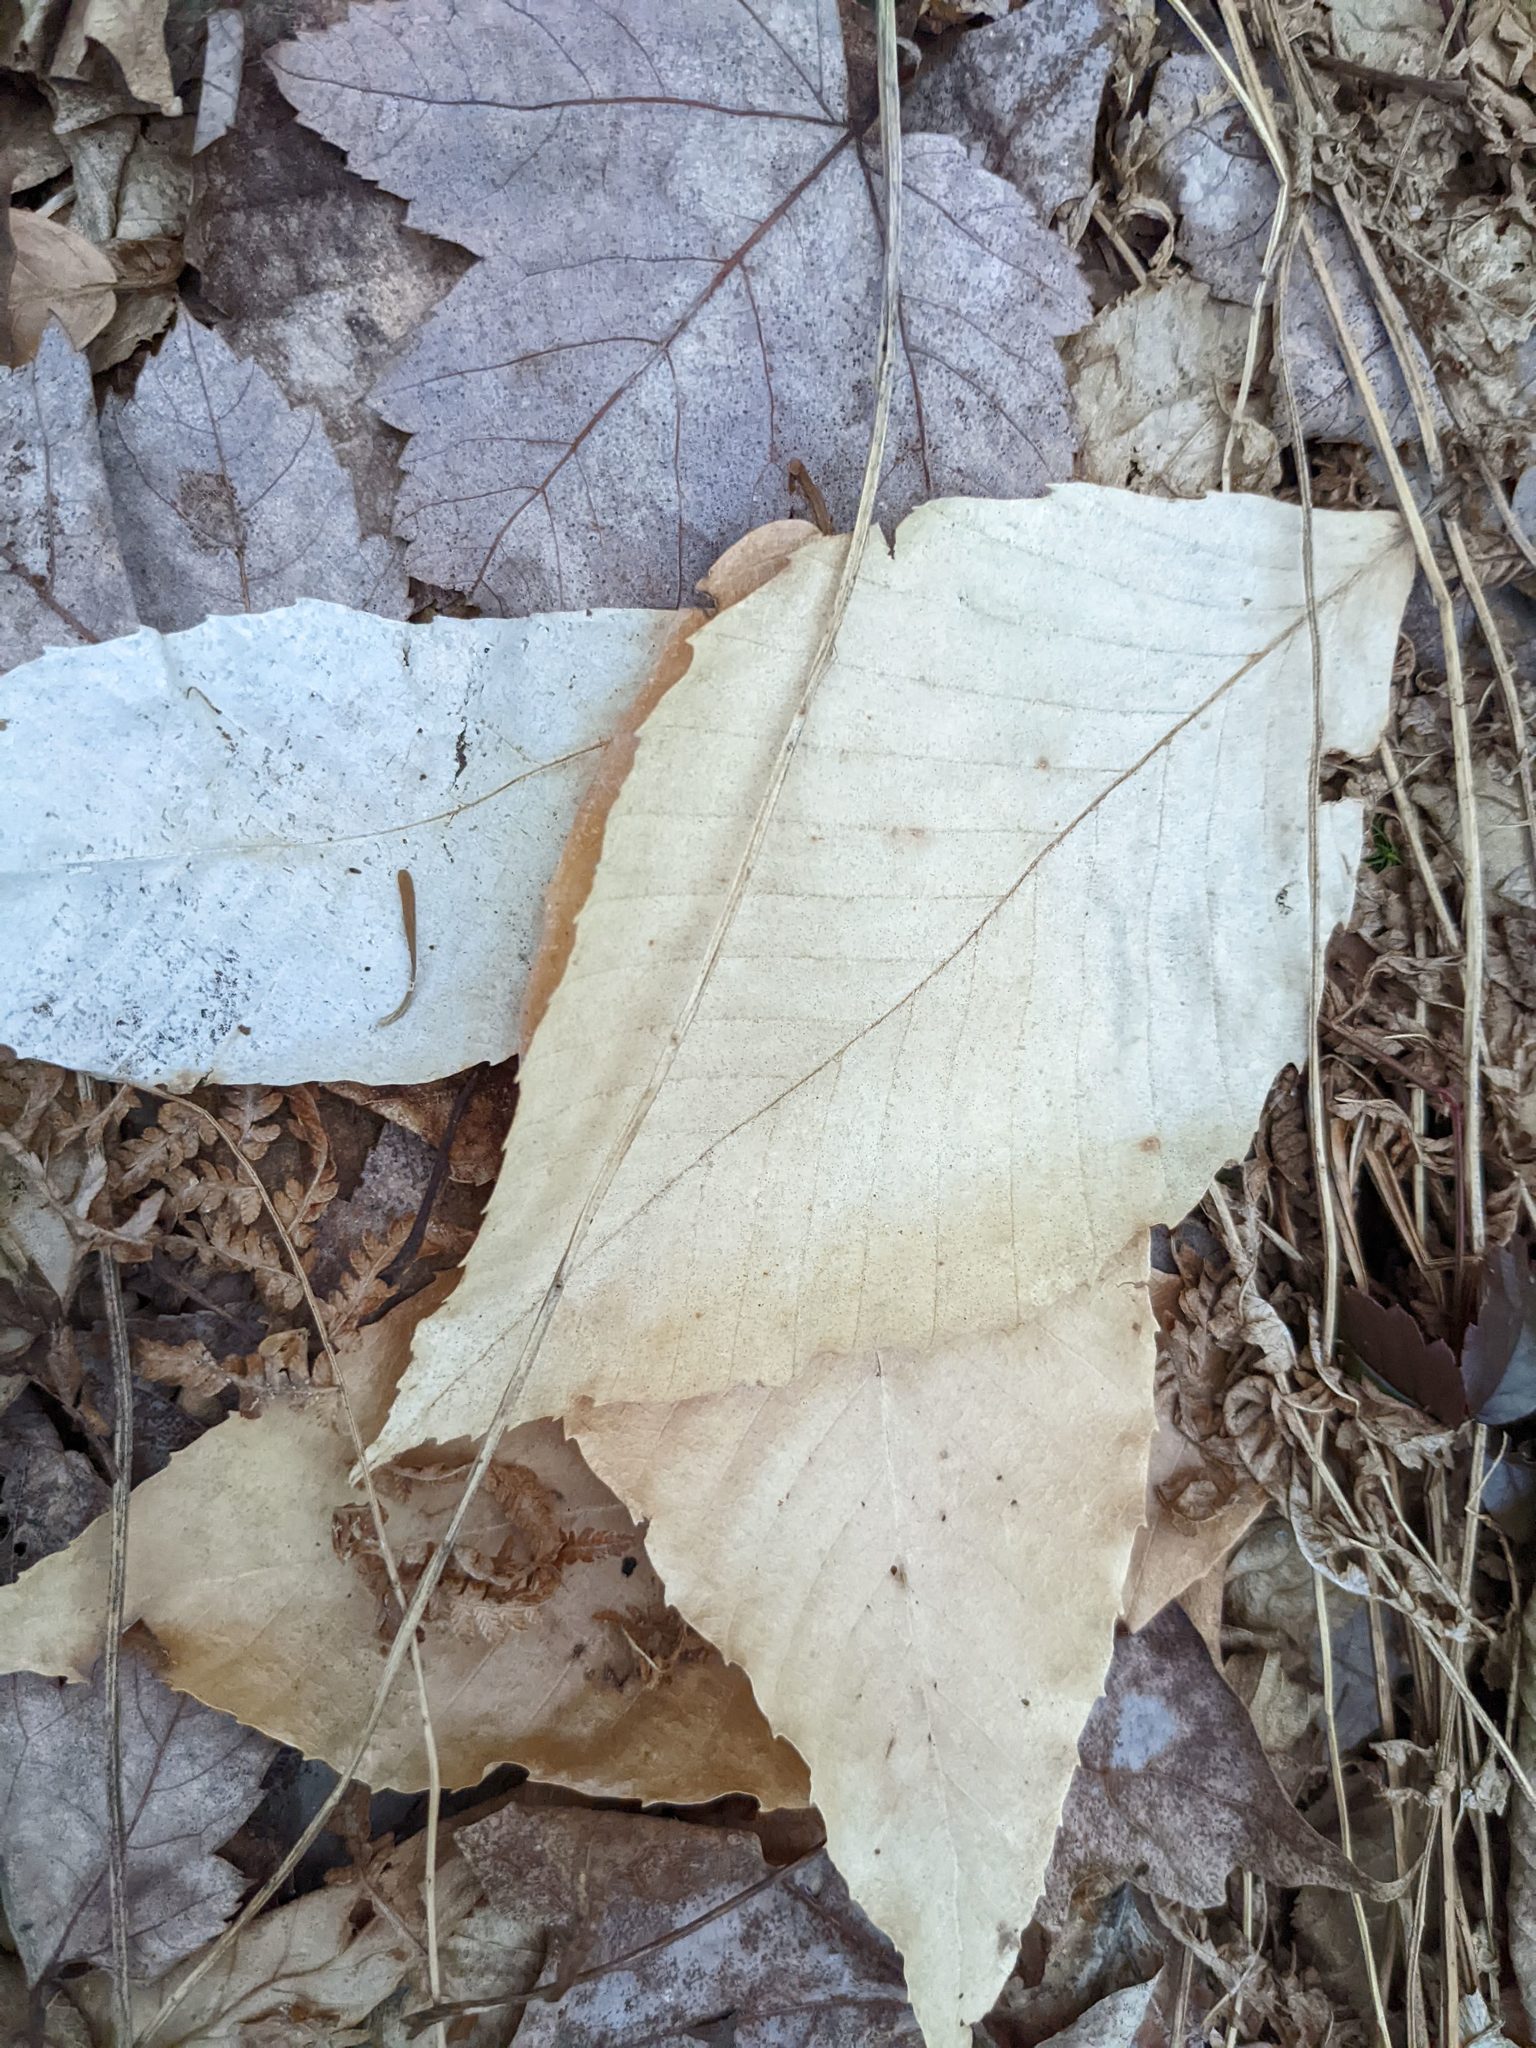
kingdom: Plantae
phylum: Tracheophyta
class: Magnoliopsida
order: Fagales
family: Fagaceae
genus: Fagus
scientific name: Fagus grandifolia
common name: American beech
